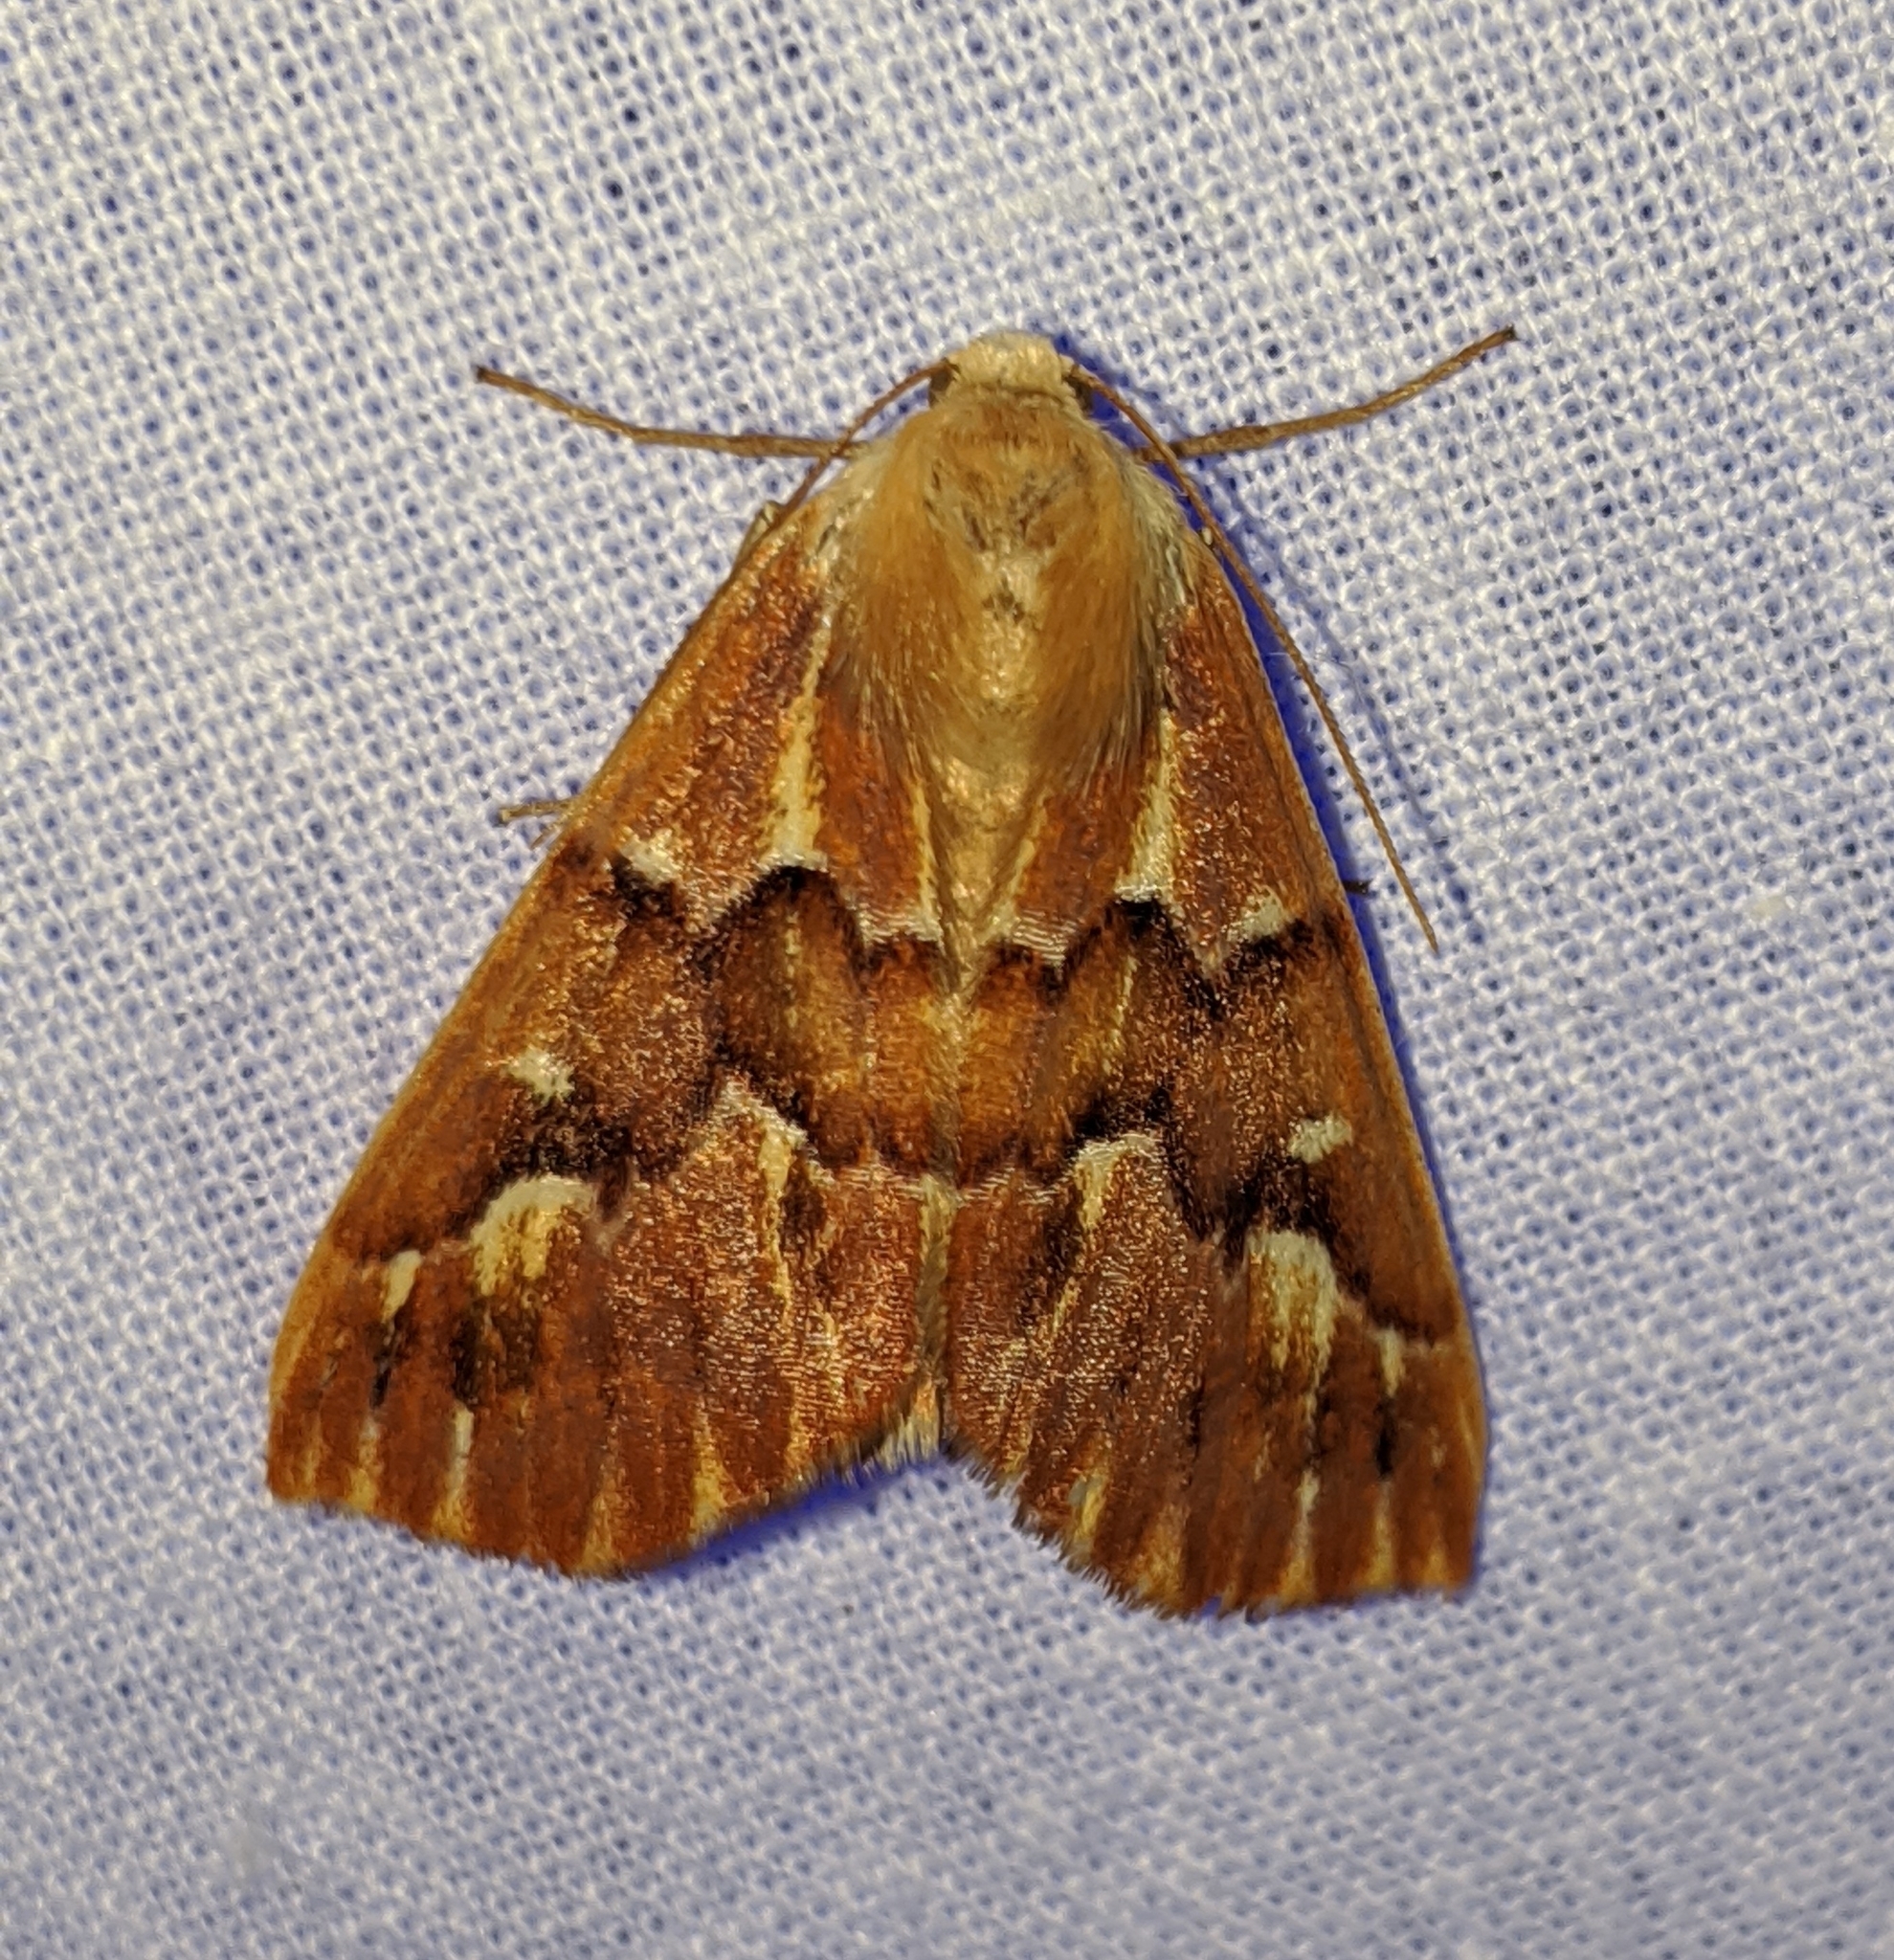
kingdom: Animalia
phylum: Arthropoda
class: Insecta
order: Lepidoptera
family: Geometridae
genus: Caripeta
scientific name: Caripeta aequaliaria
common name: Red girdle moth
